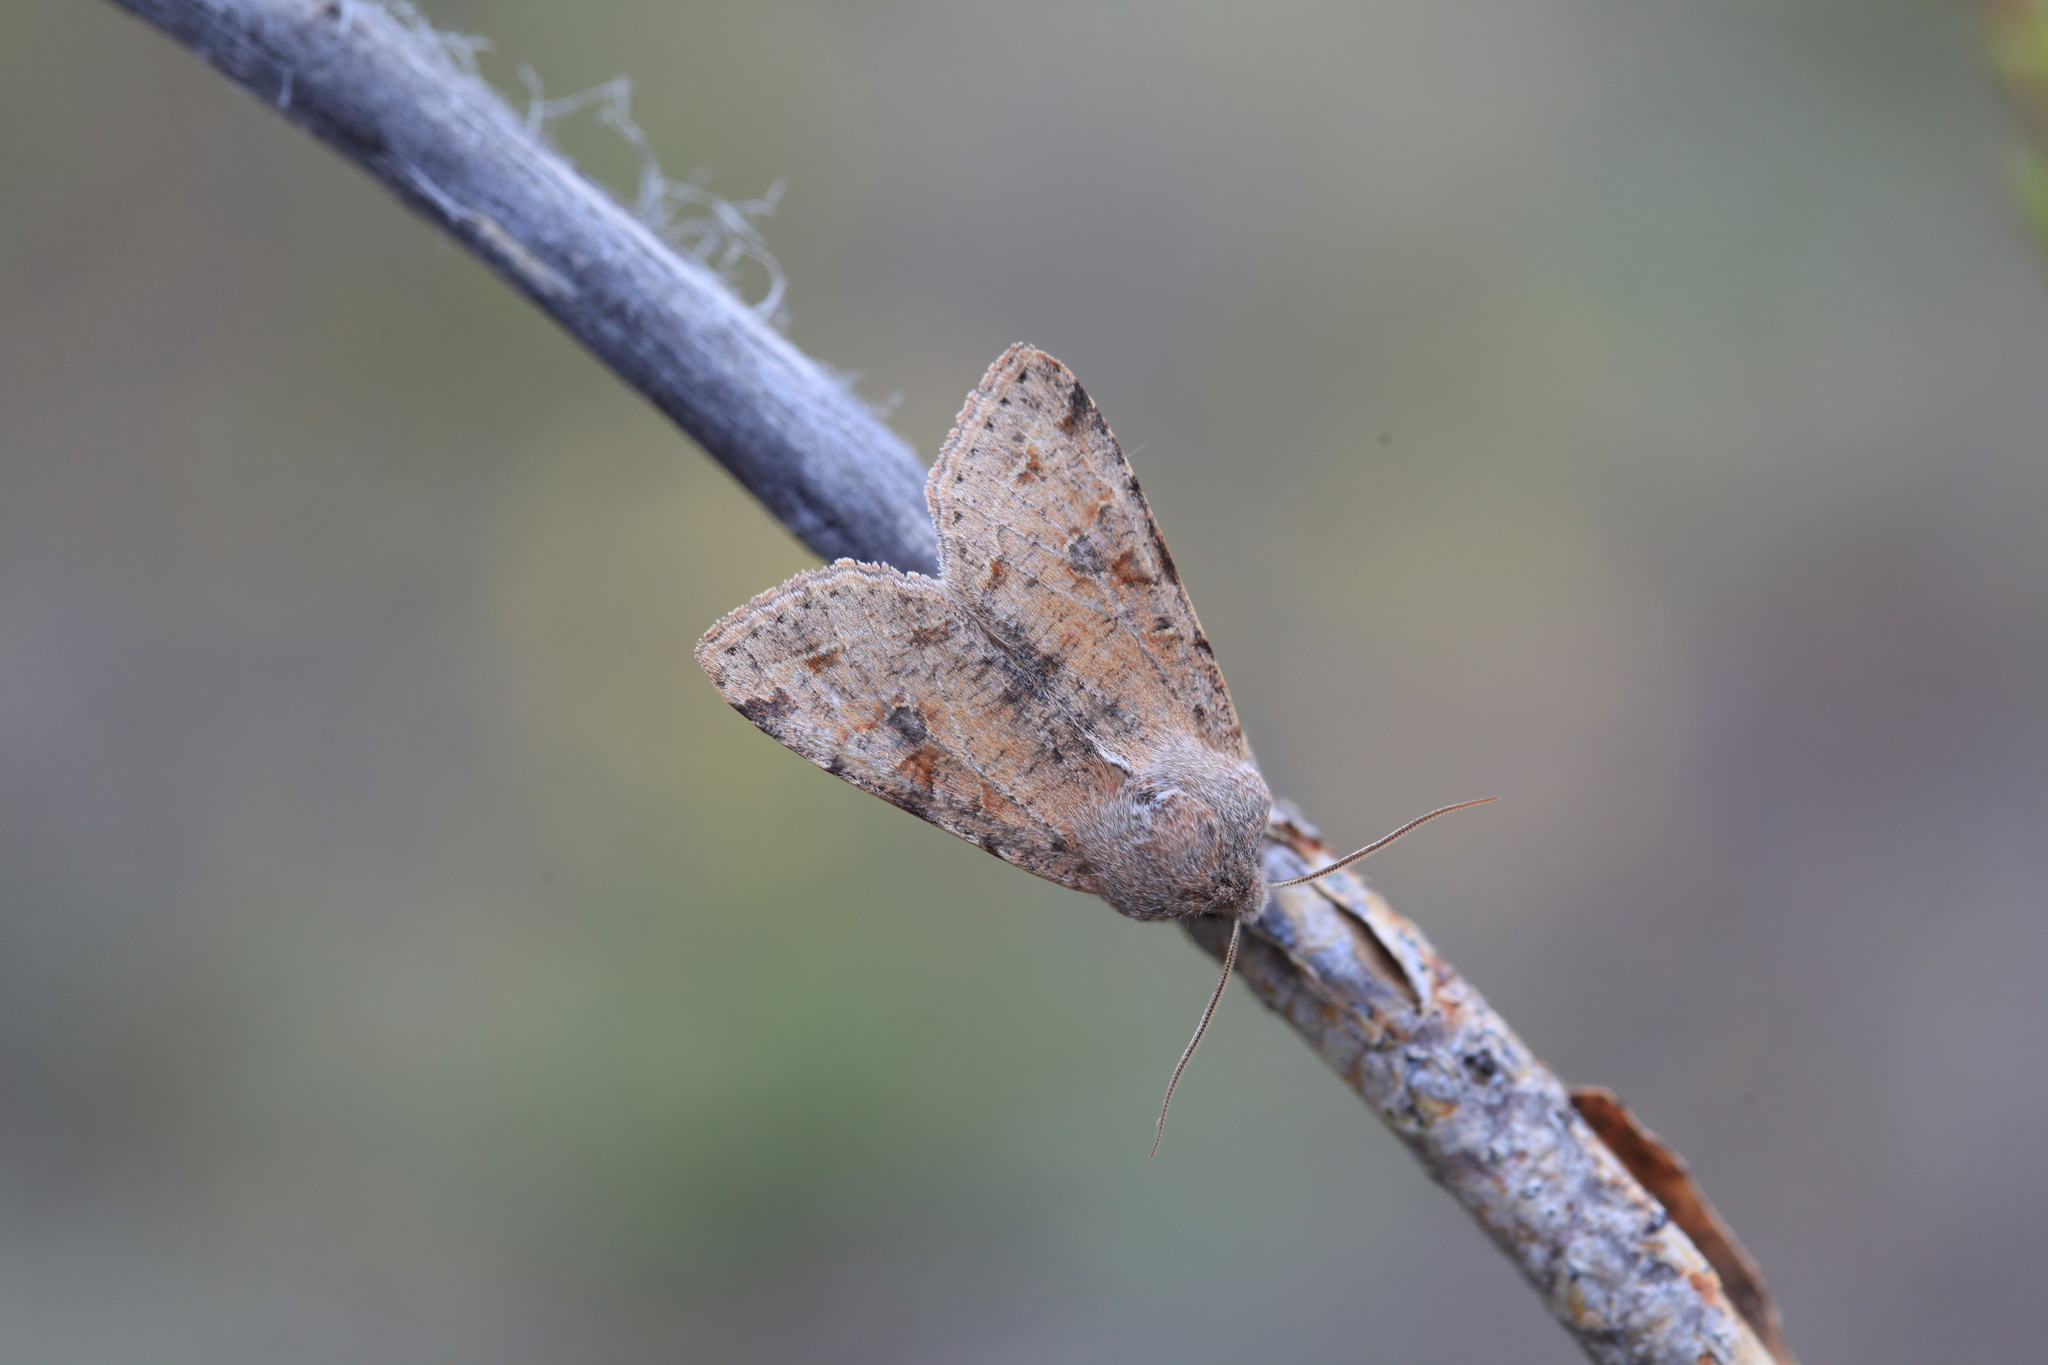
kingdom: Animalia
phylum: Arthropoda
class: Insecta
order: Lepidoptera
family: Noctuidae
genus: Orthosia
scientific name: Orthosia incerta
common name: Clouded drab
